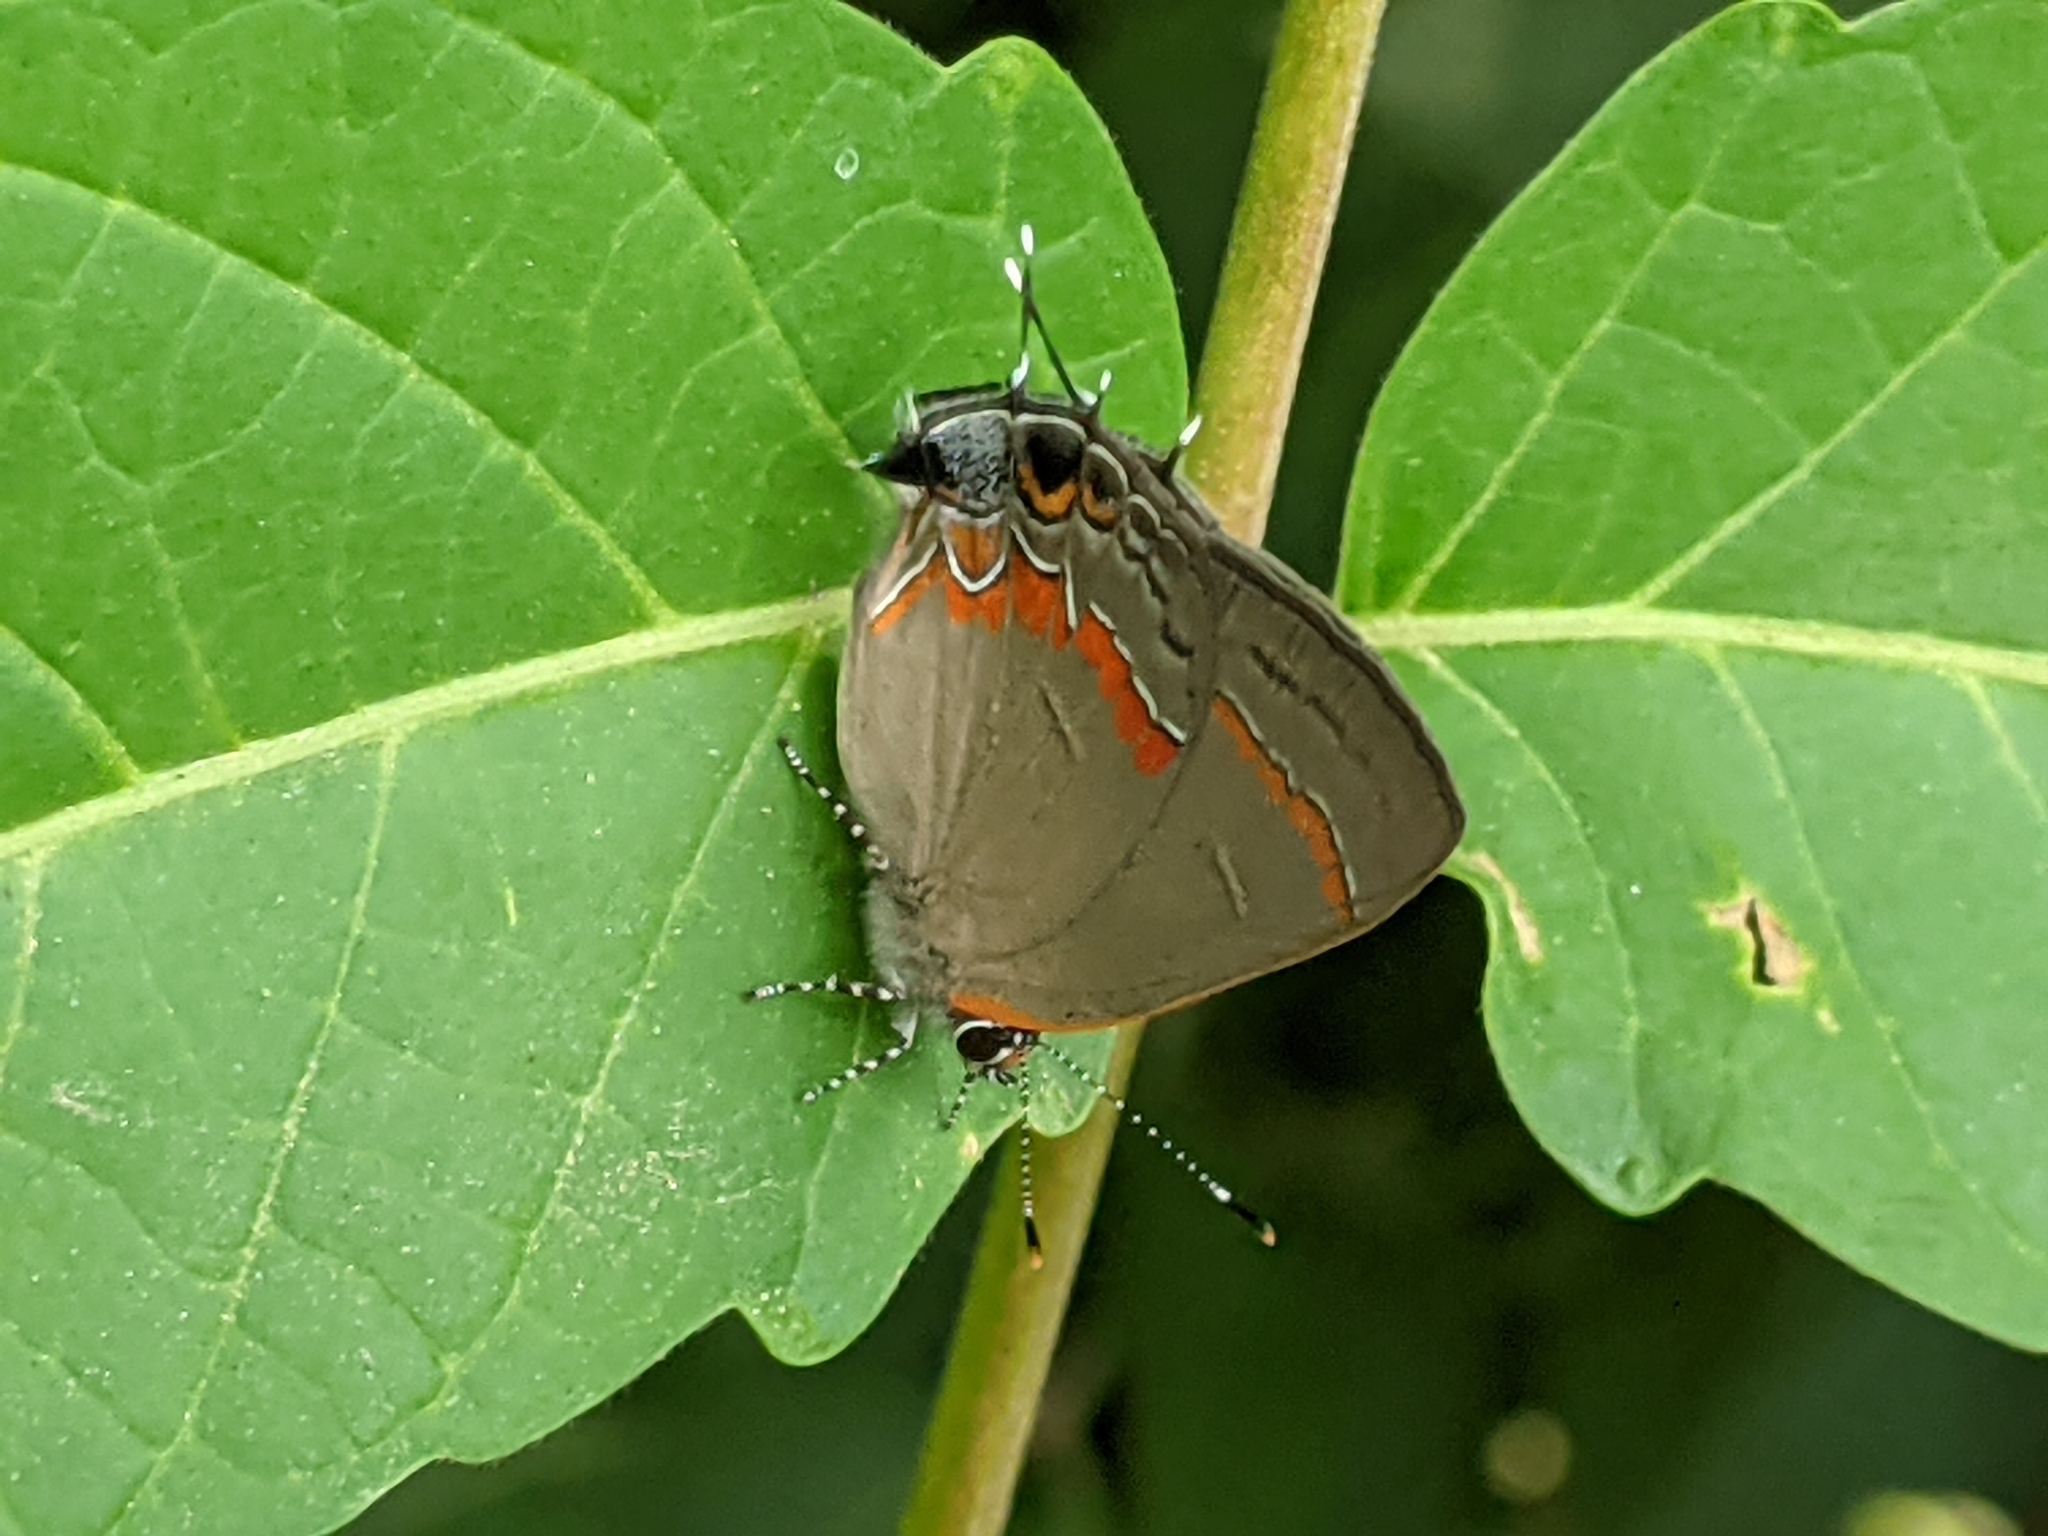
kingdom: Animalia
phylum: Arthropoda
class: Insecta
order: Lepidoptera
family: Lycaenidae
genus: Calycopis
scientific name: Calycopis cecrops
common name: Red-banded hairstreak
